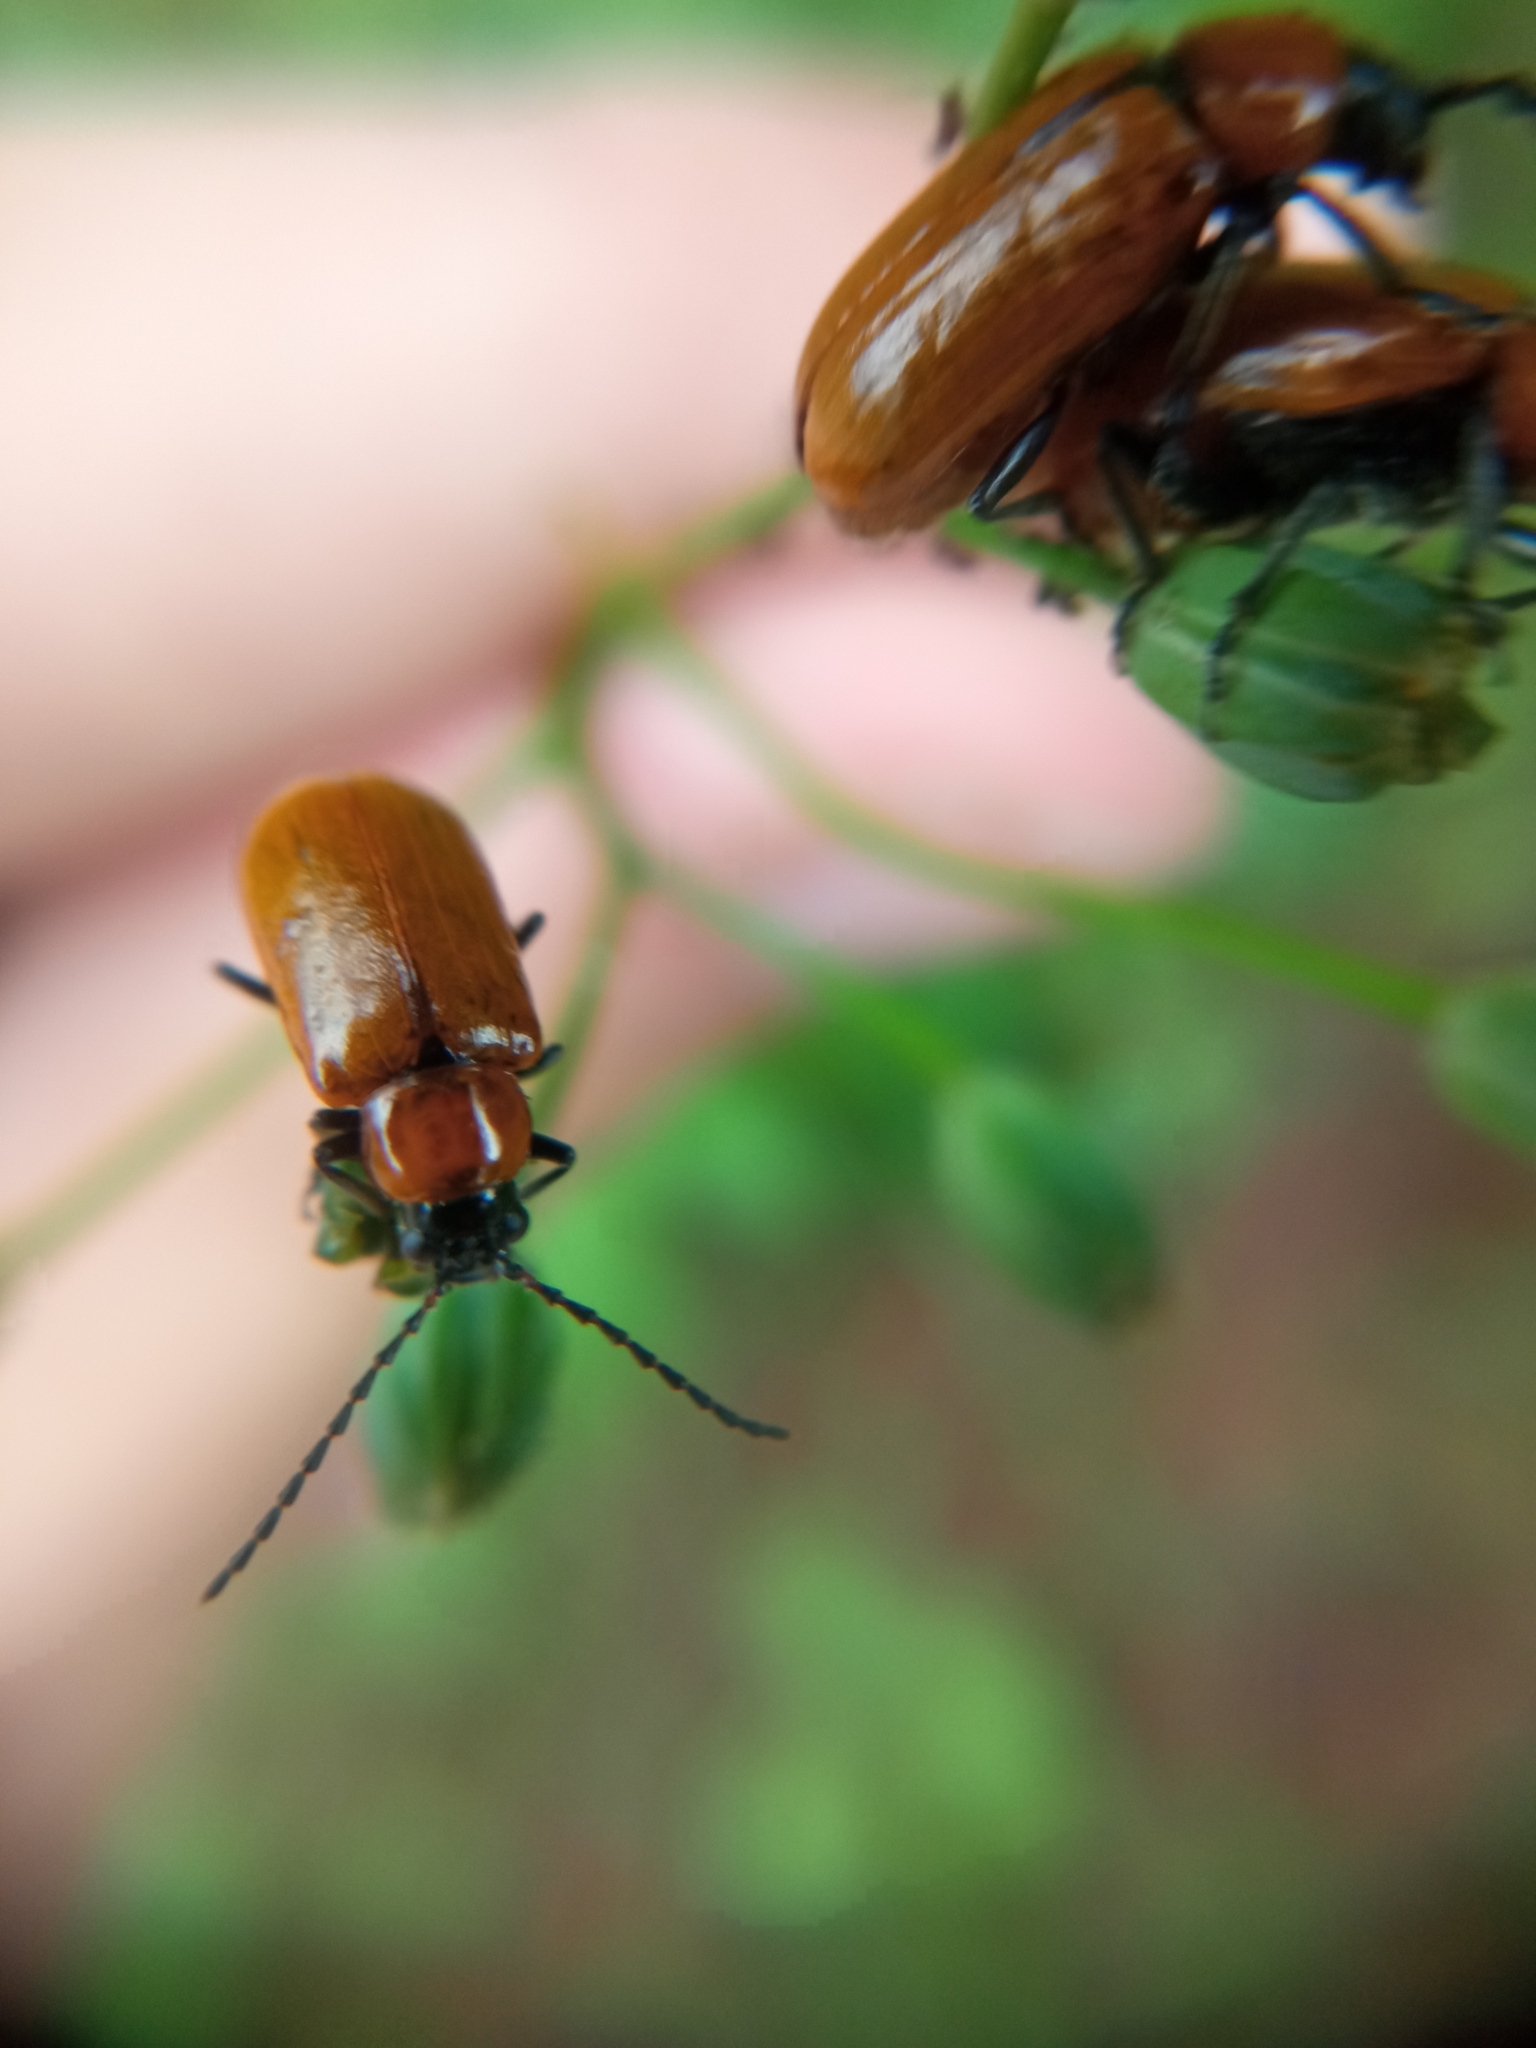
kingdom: Animalia
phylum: Arthropoda
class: Insecta
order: Coleoptera
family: Chrysomelidae
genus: Exosoma
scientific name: Exosoma lusitanicum
